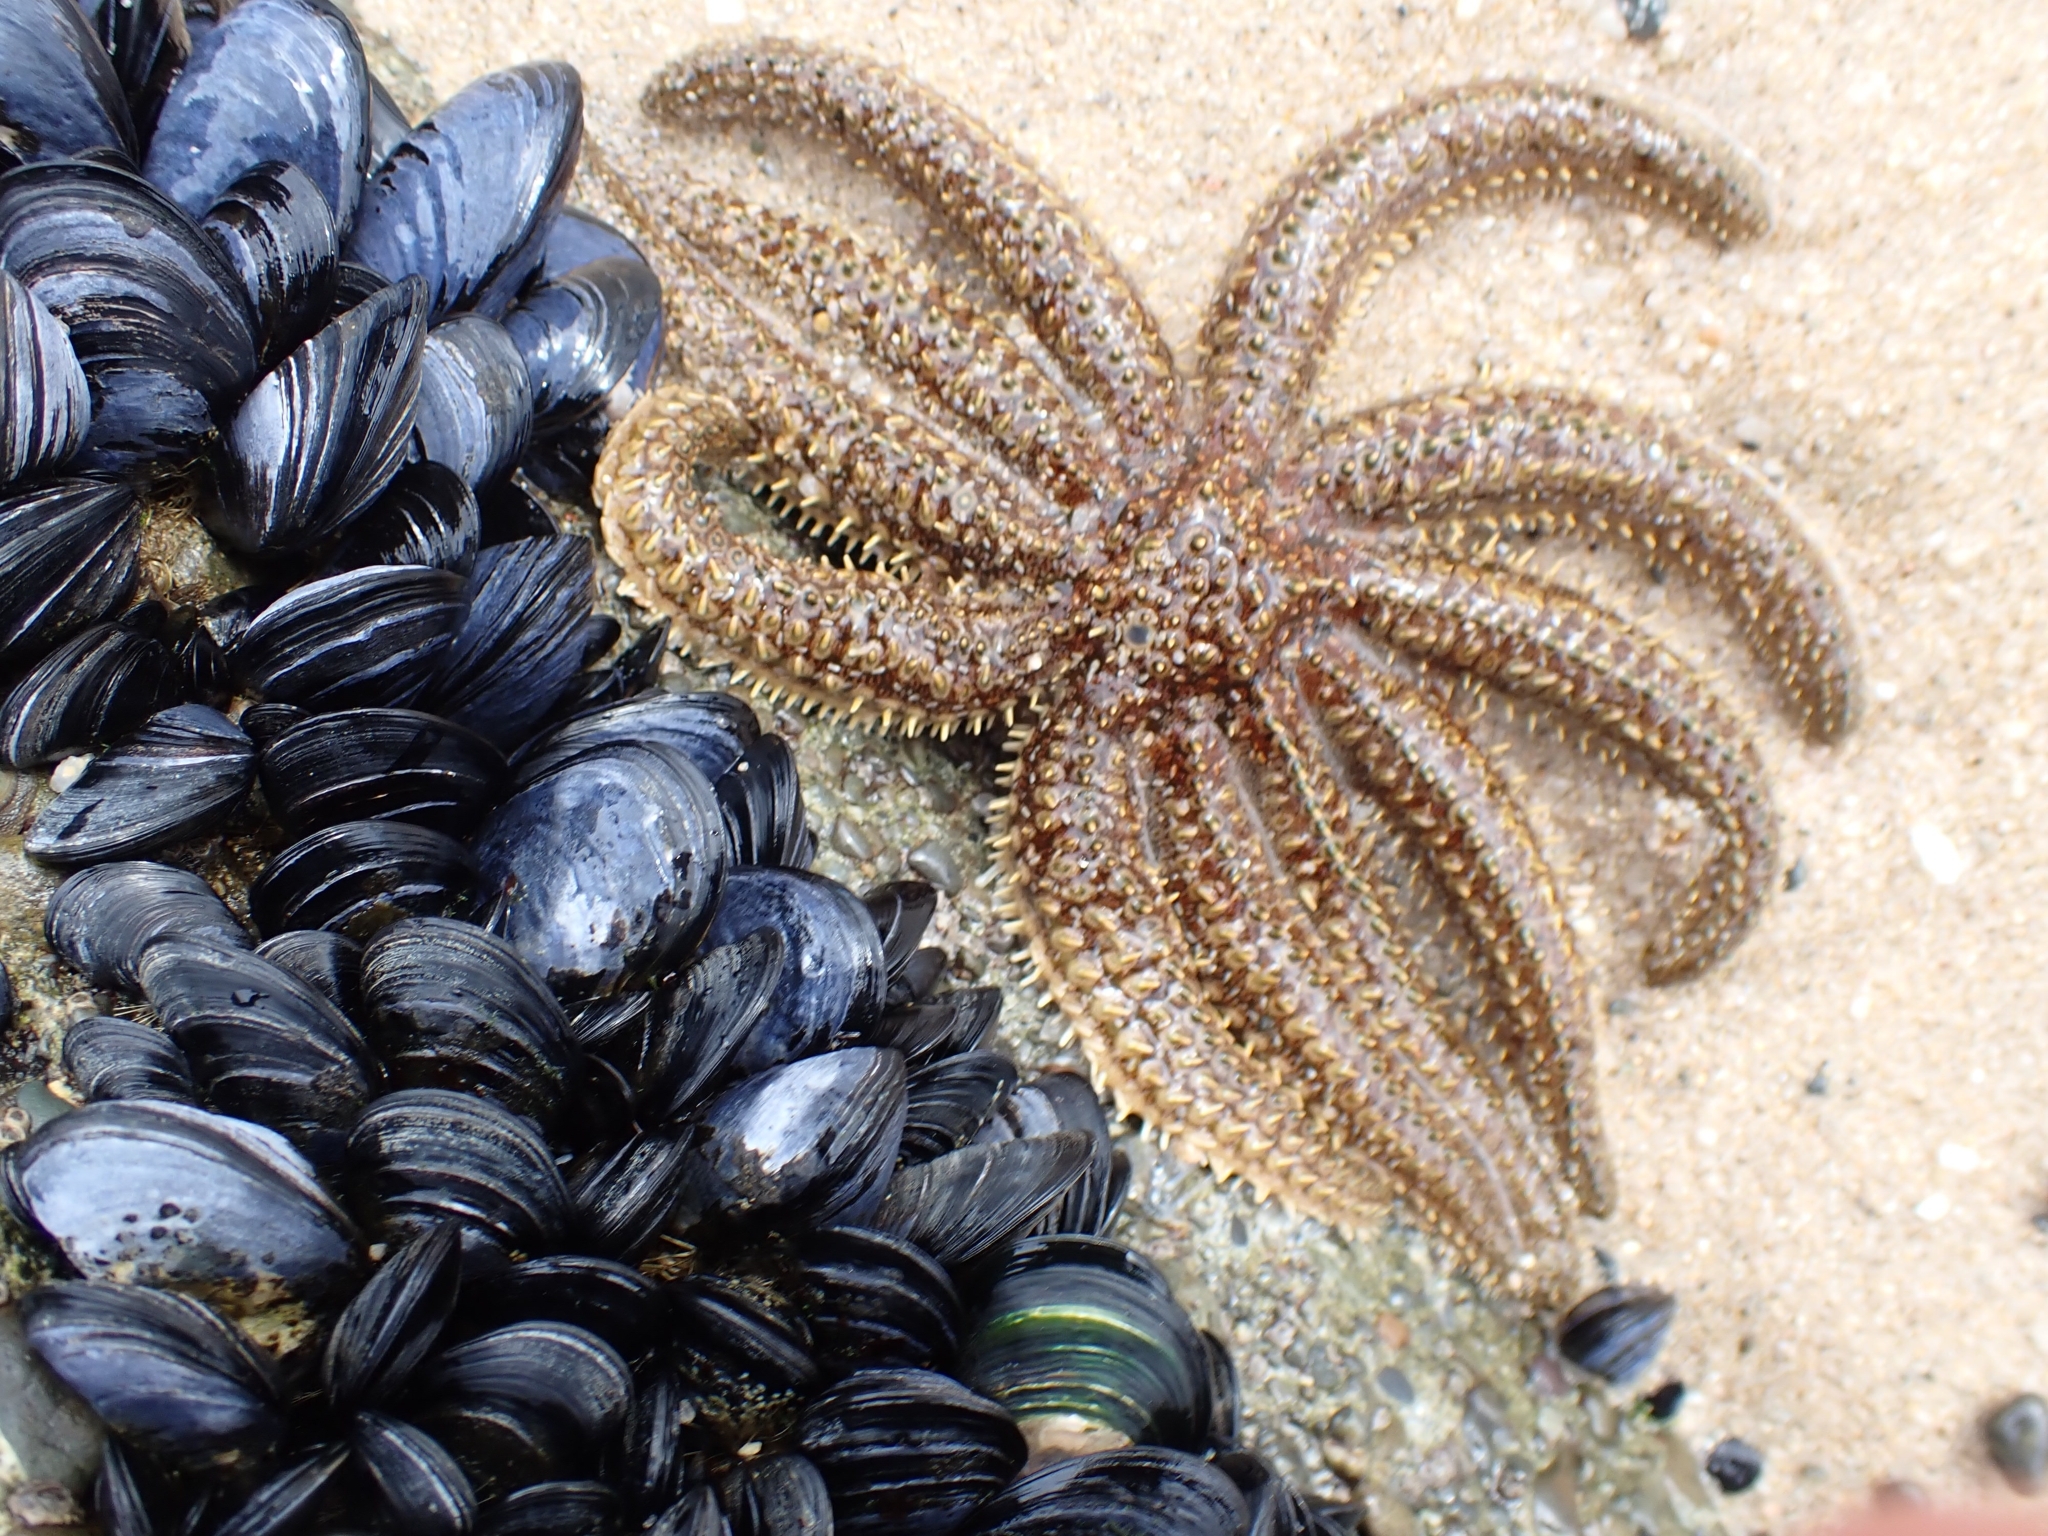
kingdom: Animalia
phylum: Echinodermata
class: Asteroidea
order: Forcipulatida
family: Asteriidae
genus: Coscinasterias
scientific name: Coscinasterias muricata
